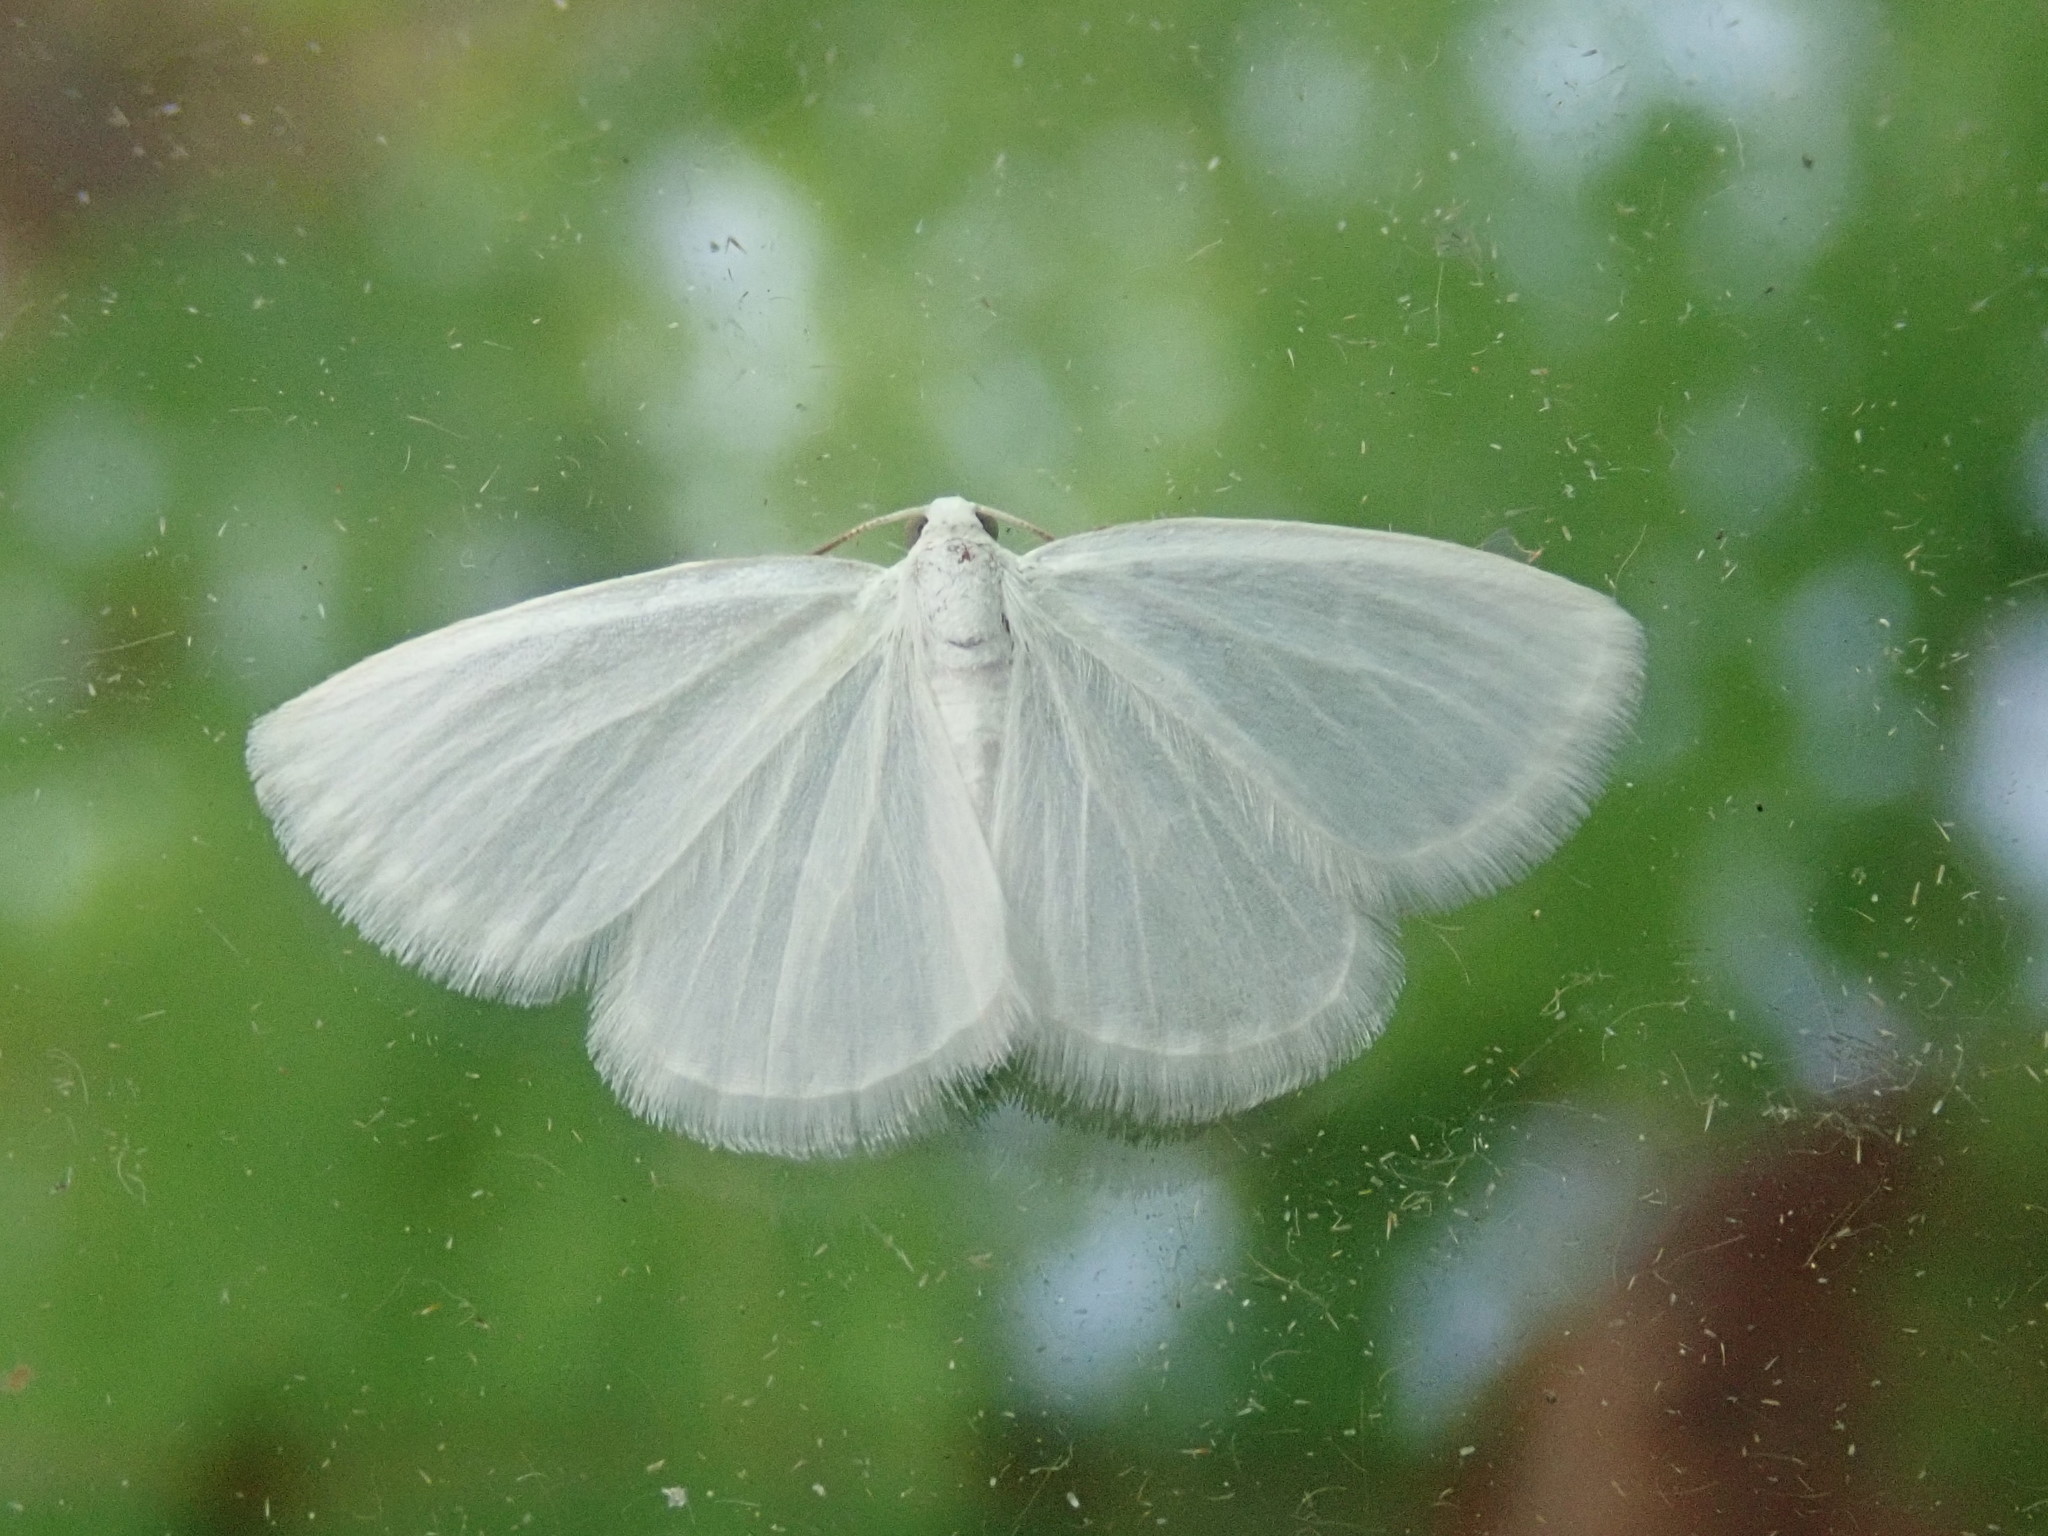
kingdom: Animalia
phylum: Arthropoda
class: Insecta
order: Lepidoptera
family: Geometridae
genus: Lomographa
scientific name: Lomographa vestaliata
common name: White spring moth
